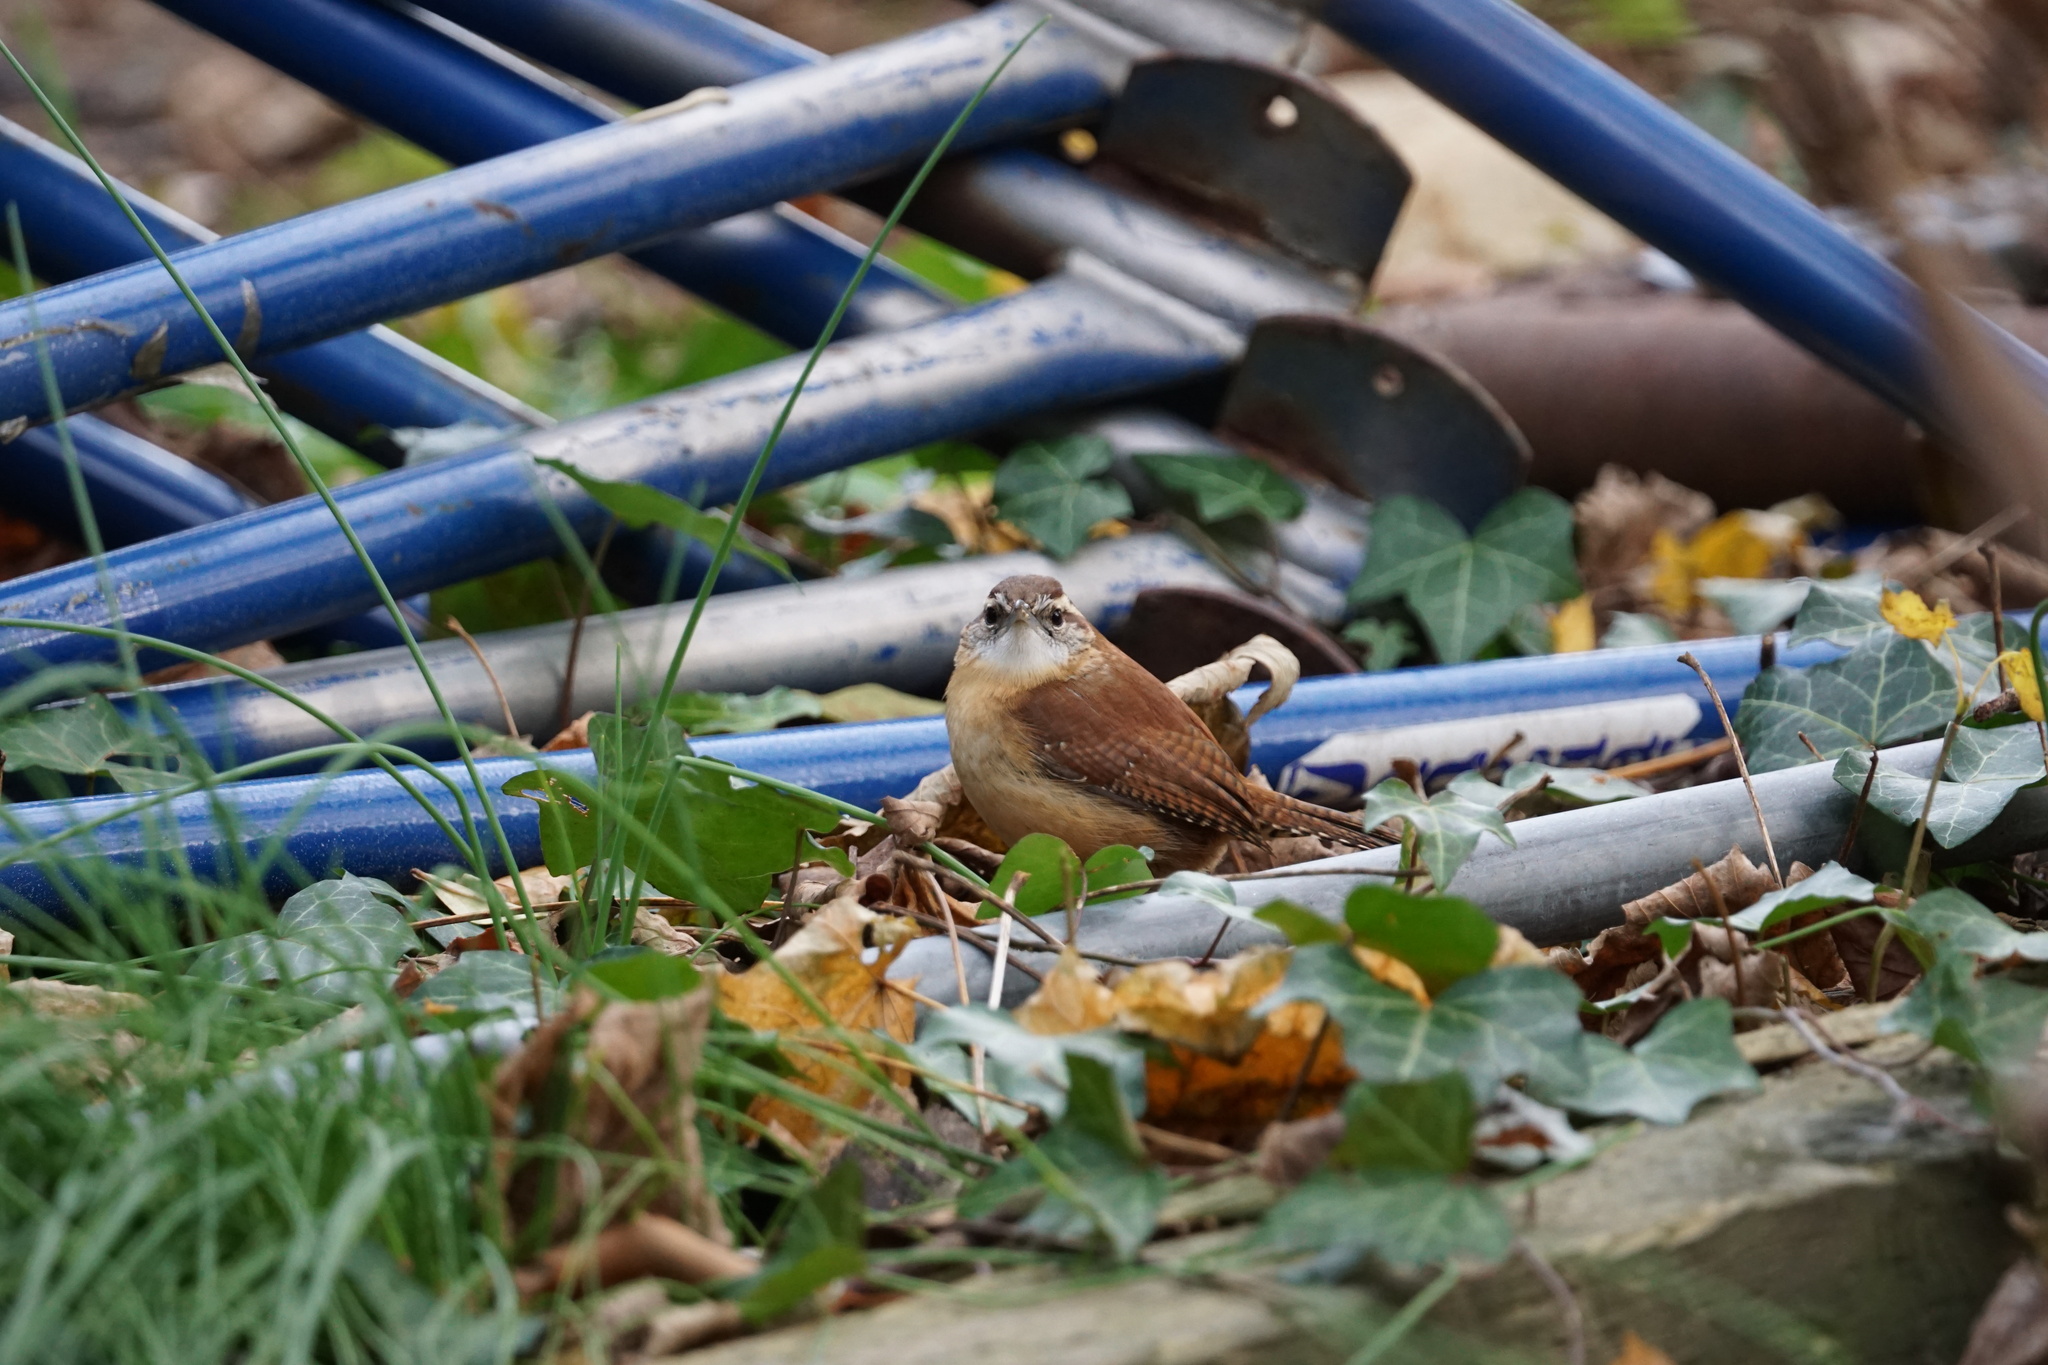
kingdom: Animalia
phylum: Chordata
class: Aves
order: Passeriformes
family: Troglodytidae
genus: Thryothorus
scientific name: Thryothorus ludovicianus
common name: Carolina wren
